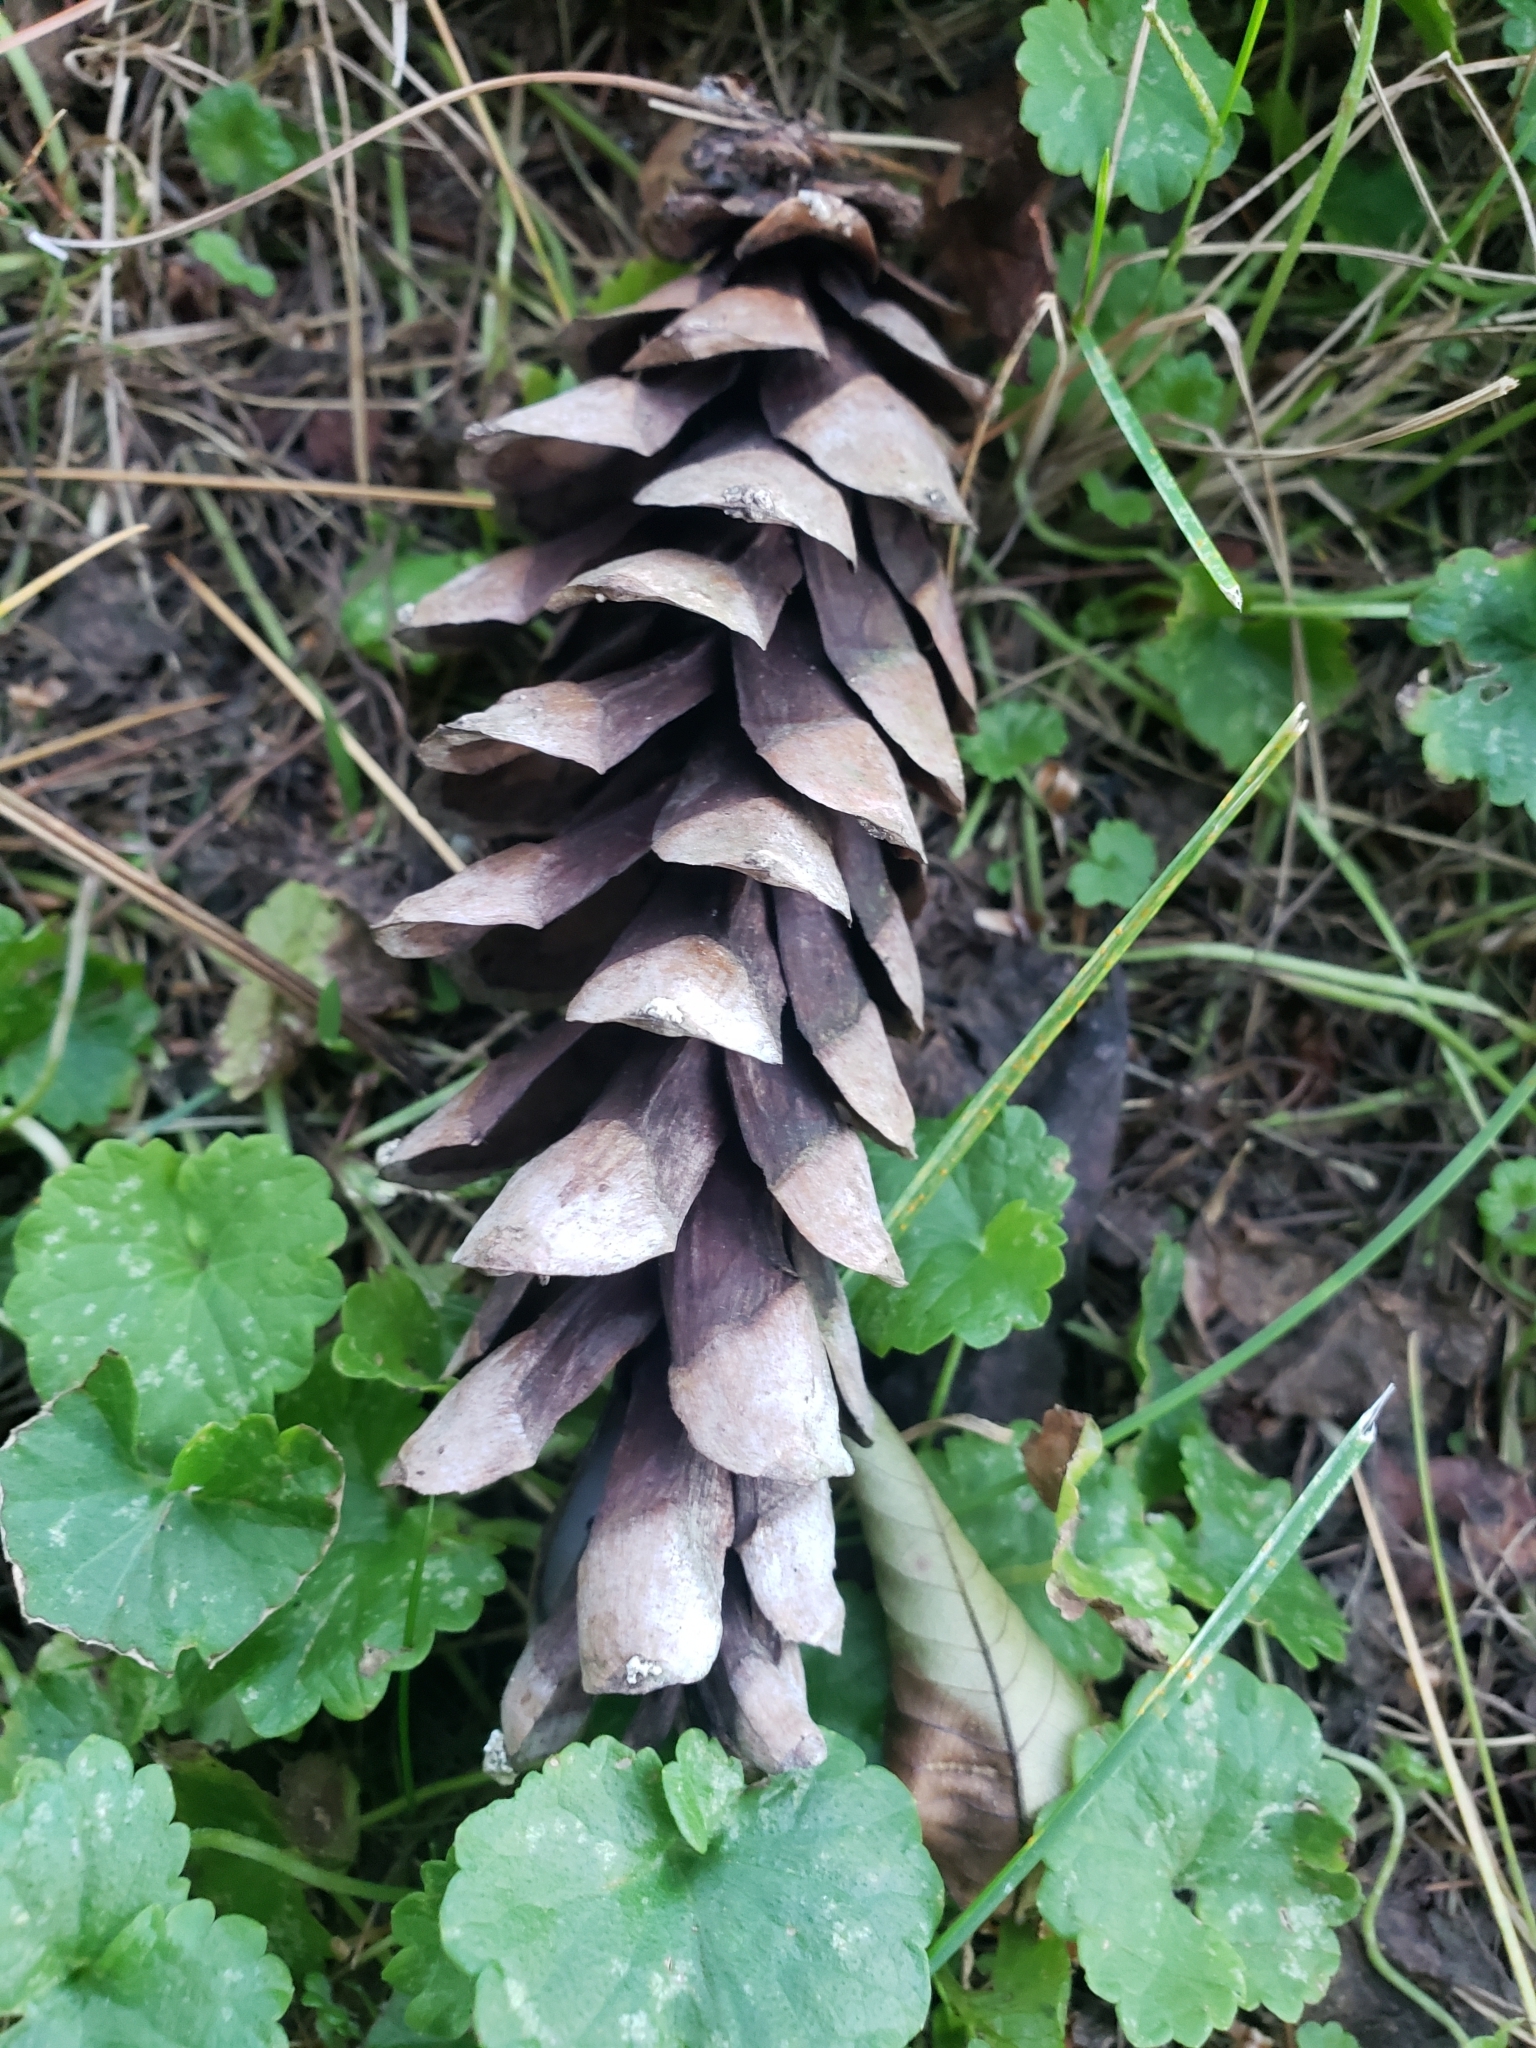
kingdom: Plantae
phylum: Tracheophyta
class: Pinopsida
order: Pinales
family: Pinaceae
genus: Pinus
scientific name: Pinus strobus
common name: Weymouth pine
